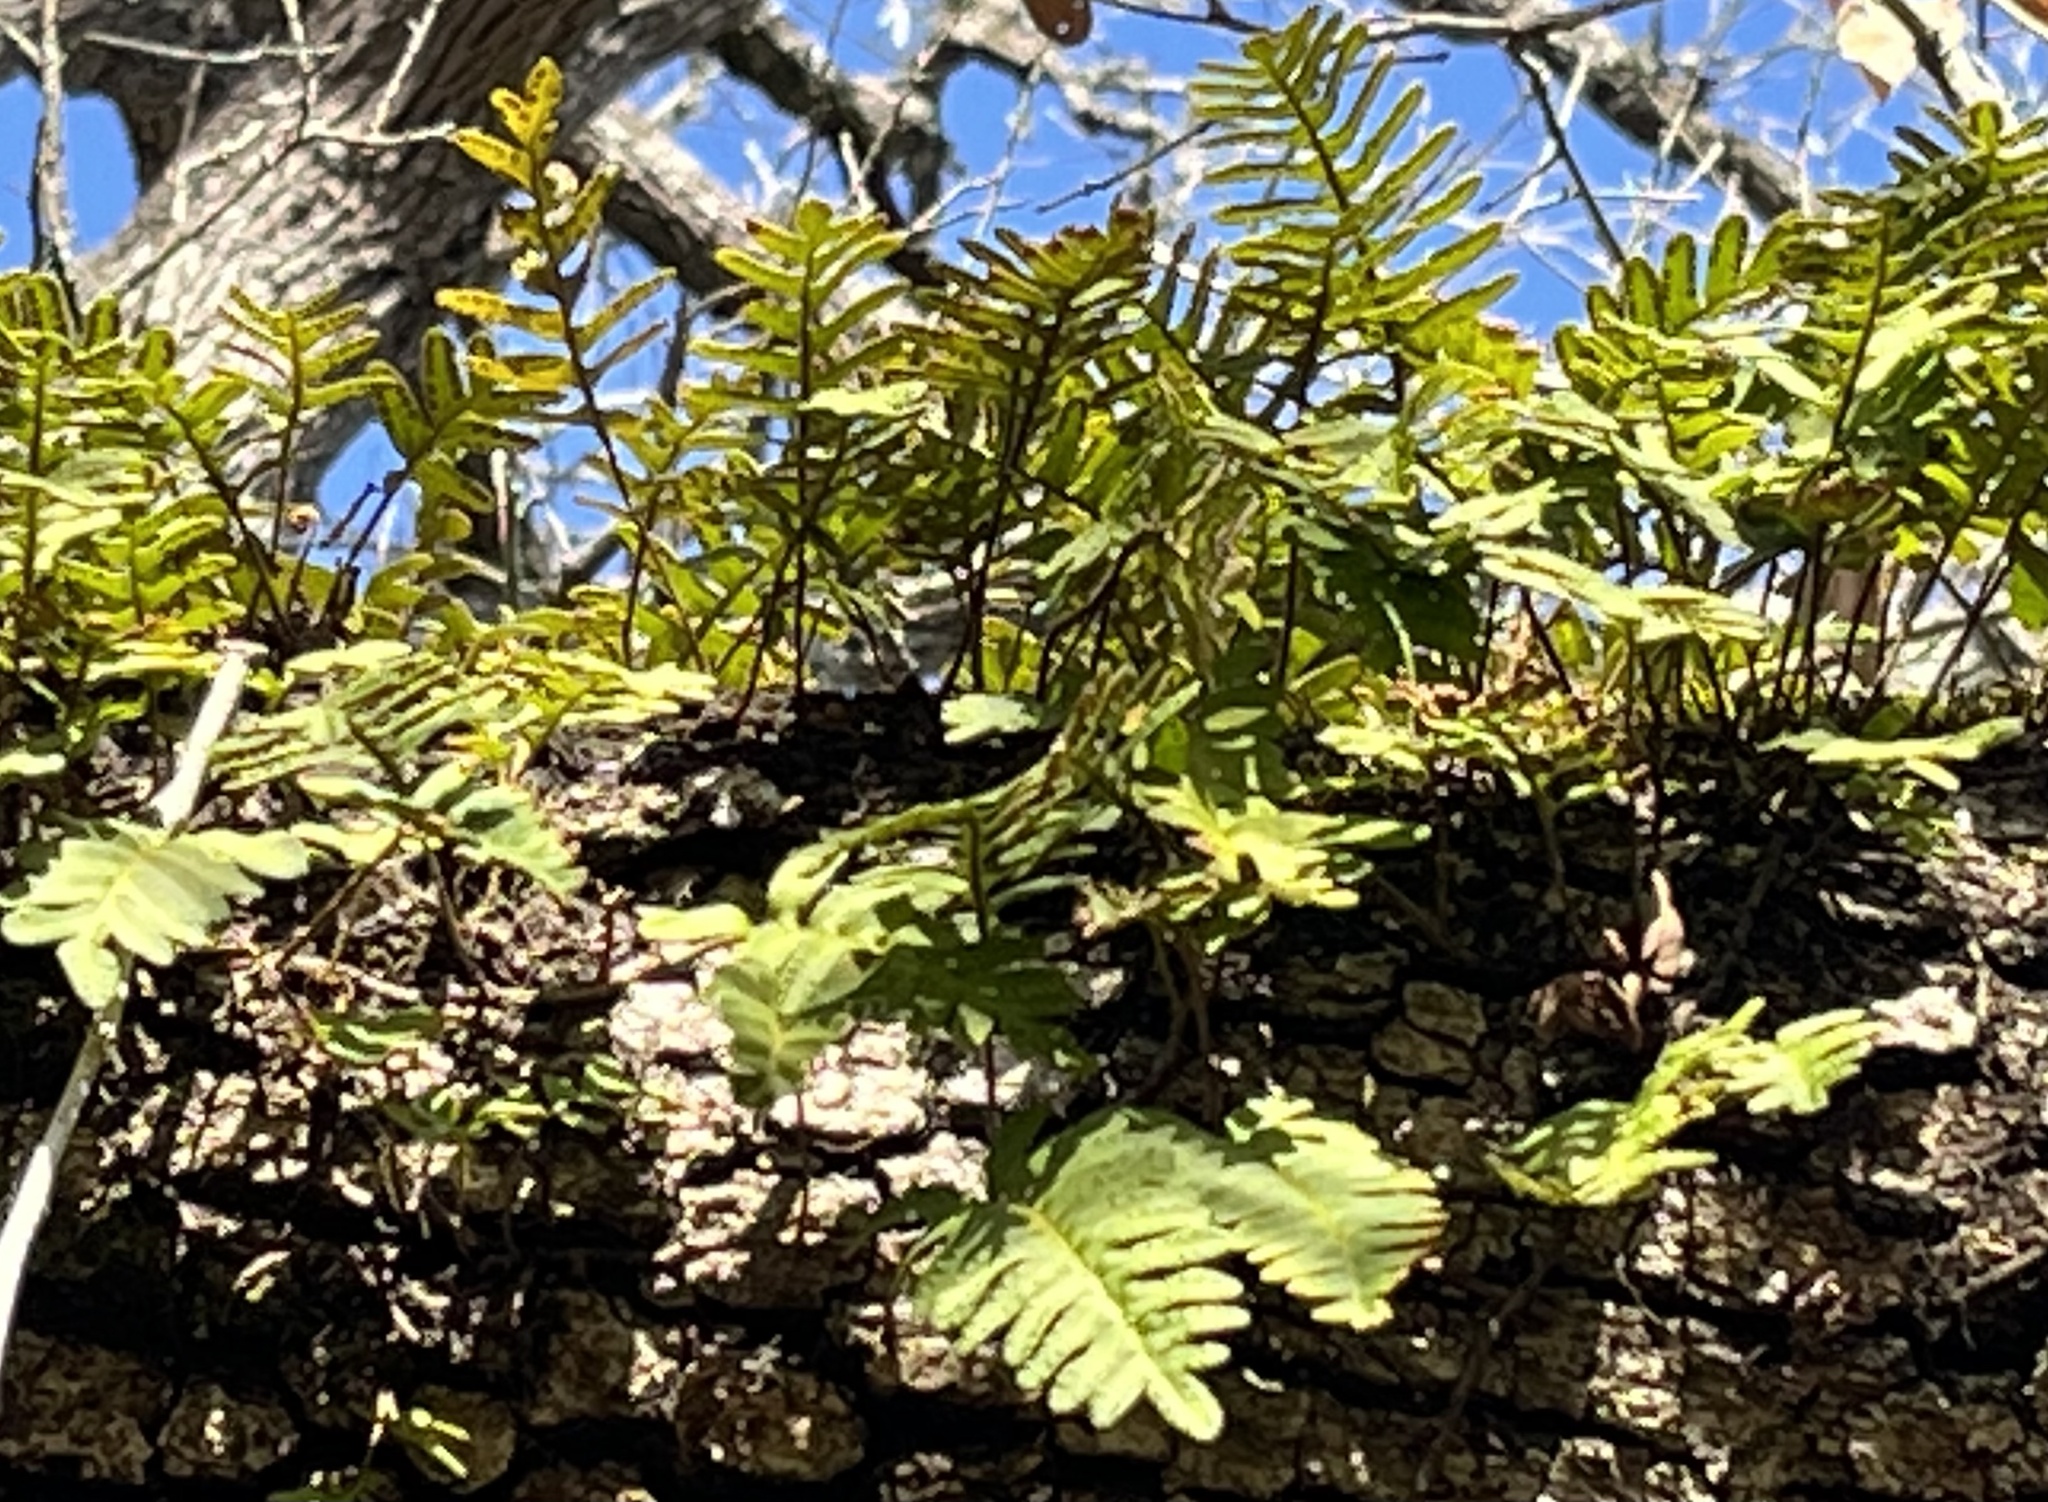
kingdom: Plantae
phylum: Tracheophyta
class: Polypodiopsida
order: Polypodiales
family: Polypodiaceae
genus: Pleopeltis
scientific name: Pleopeltis michauxiana
